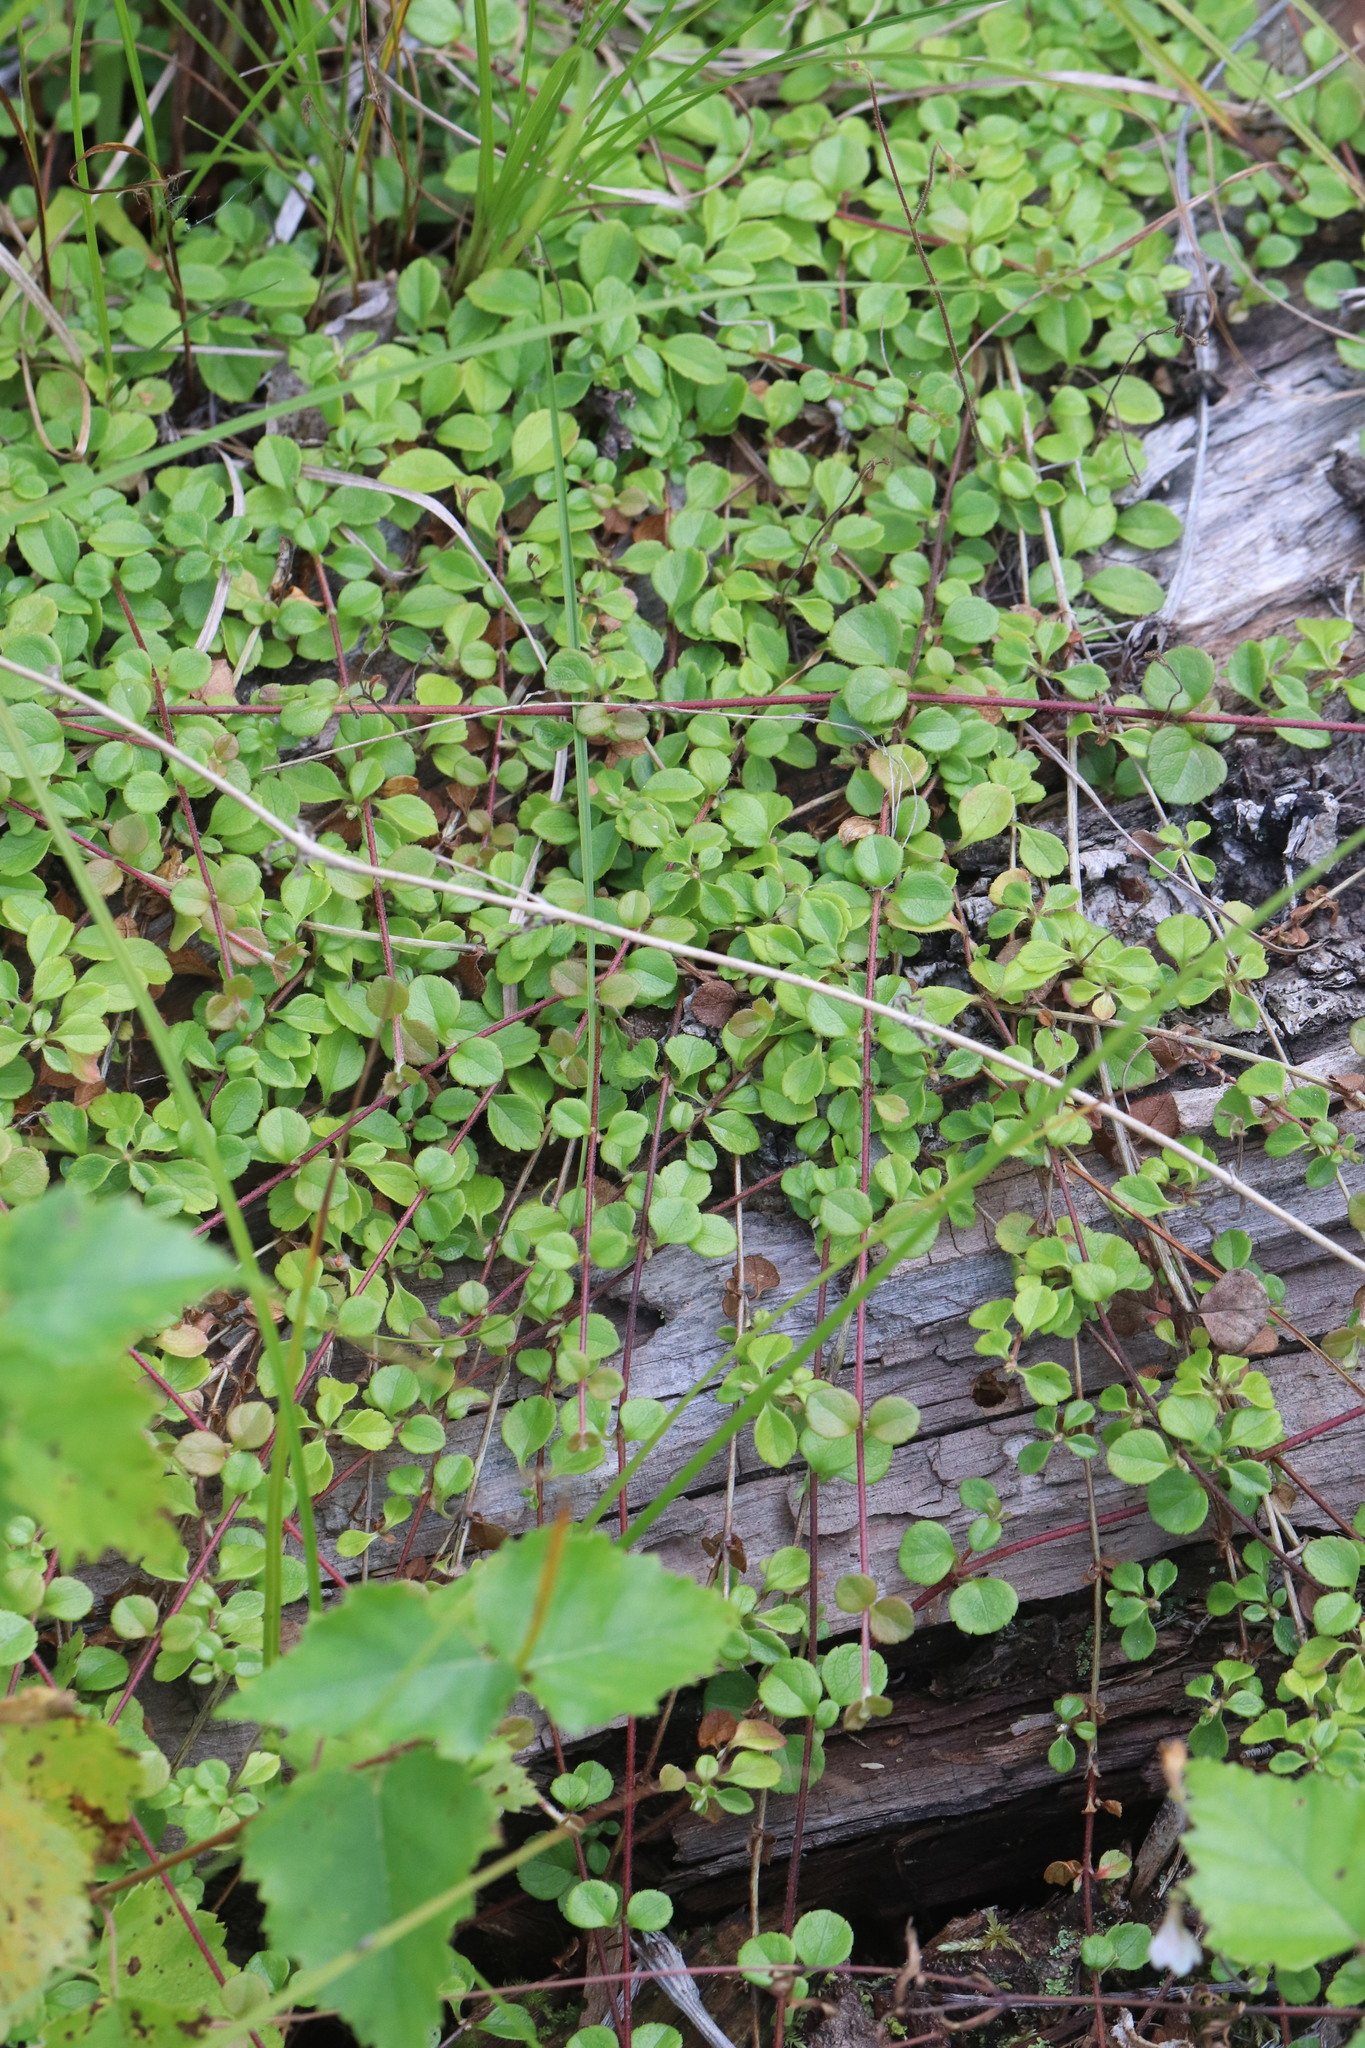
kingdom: Plantae
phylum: Tracheophyta
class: Magnoliopsida
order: Dipsacales
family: Caprifoliaceae
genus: Linnaea
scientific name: Linnaea borealis
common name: Twinflower
